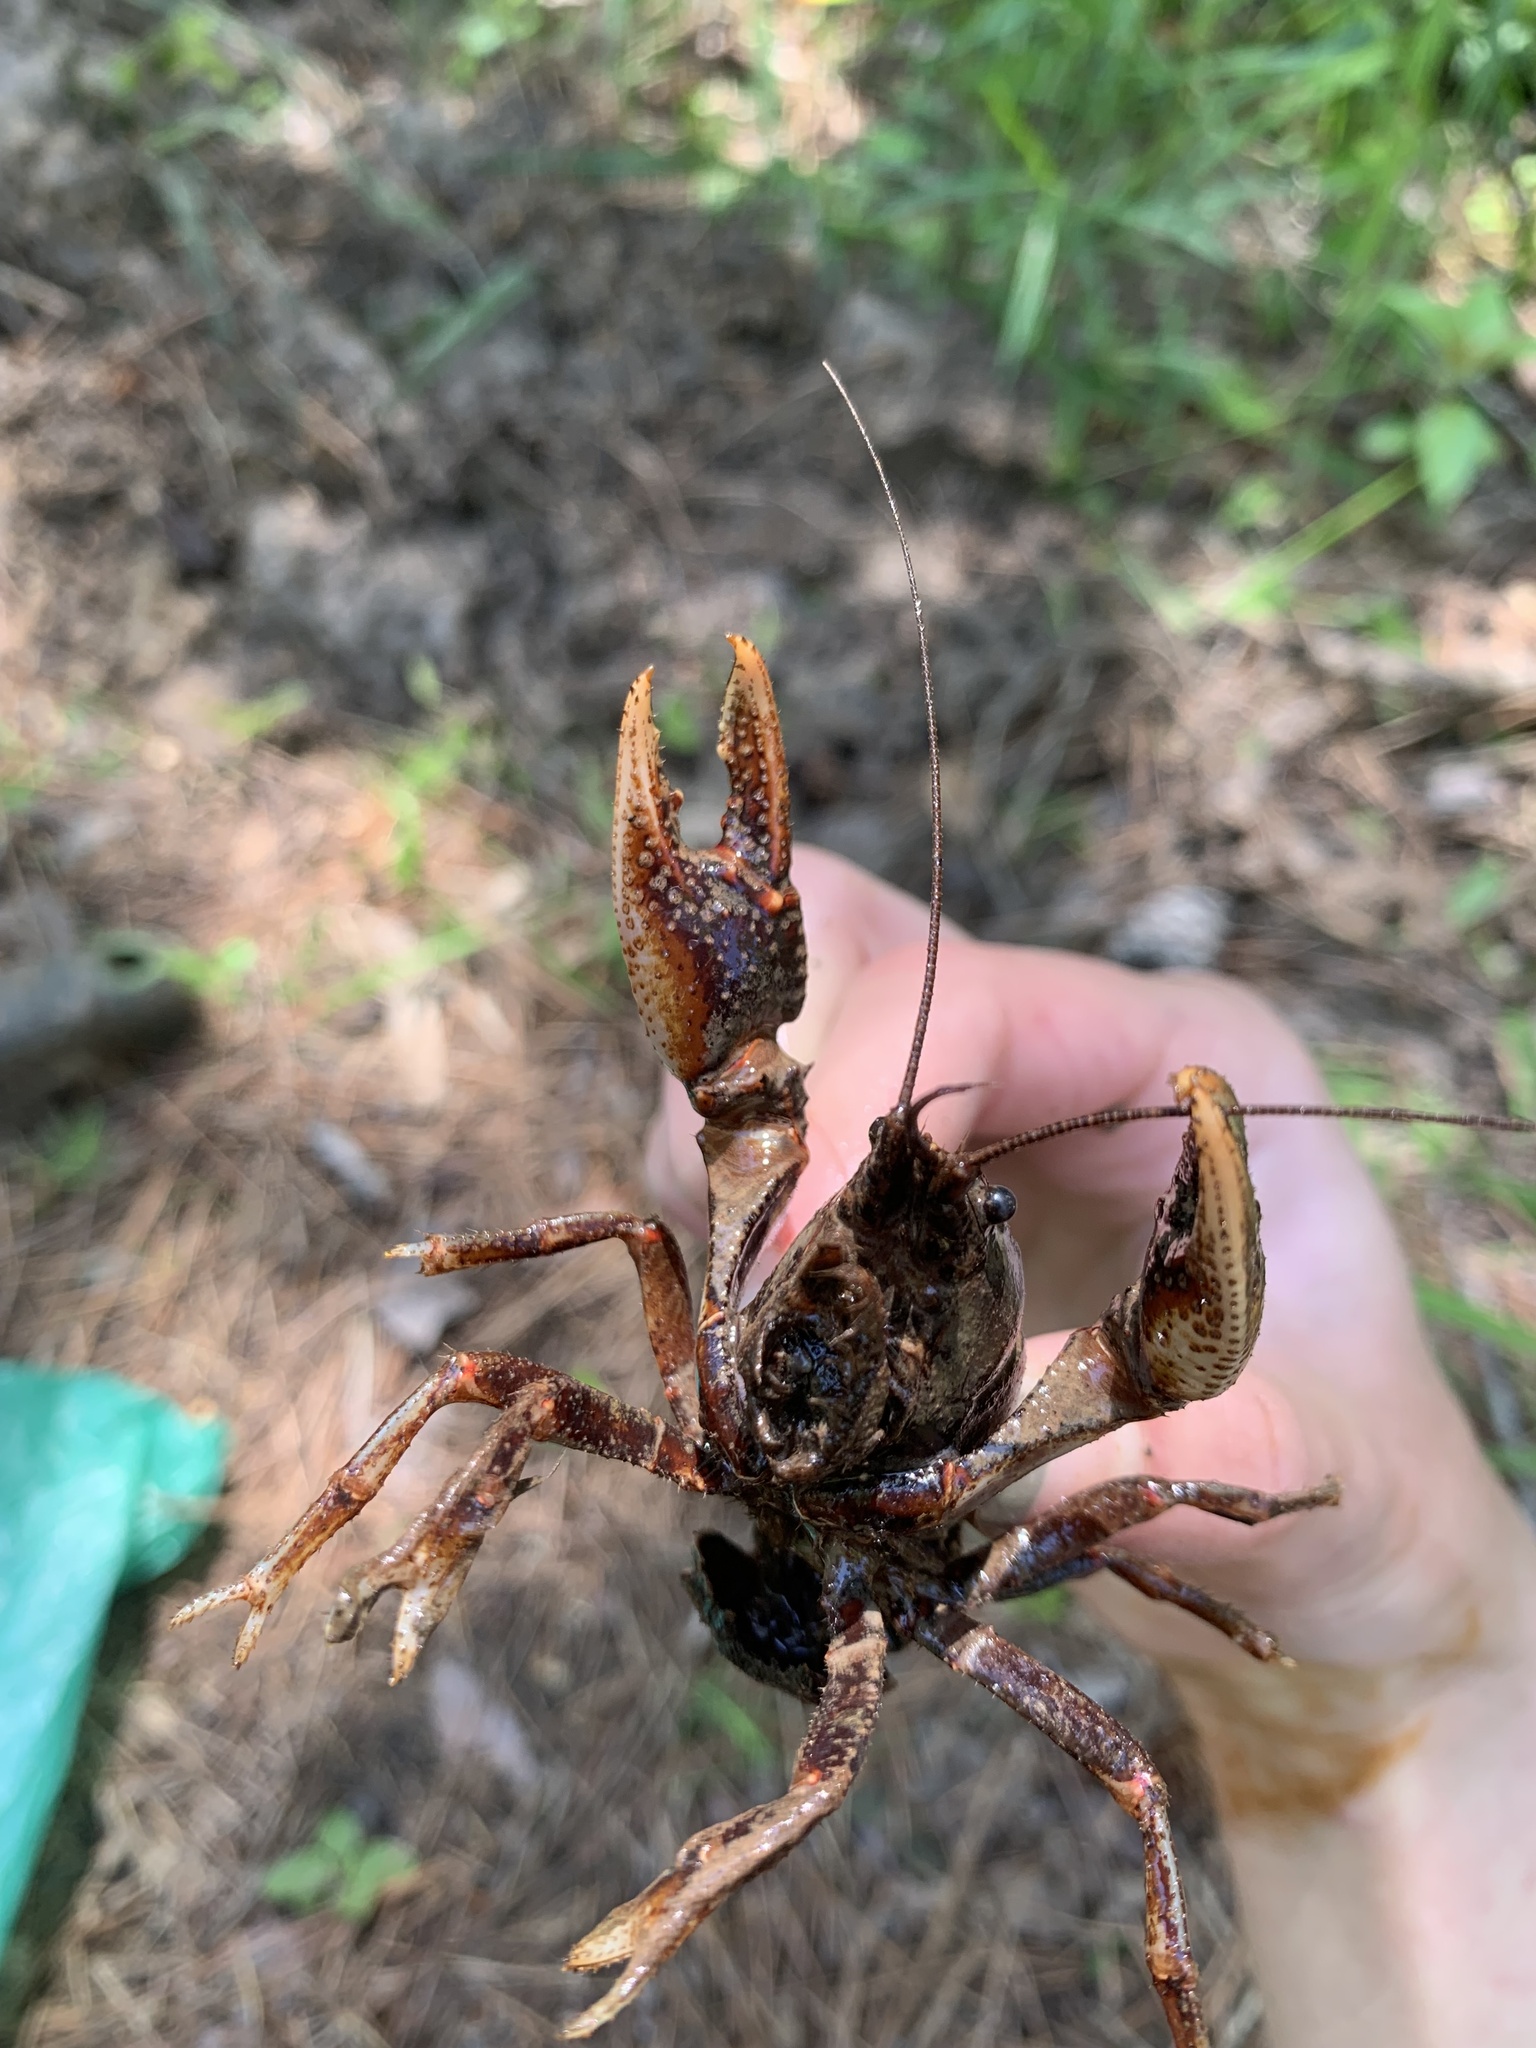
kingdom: Animalia
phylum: Arthropoda
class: Malacostraca
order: Decapoda
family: Cambaridae
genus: Lacunicambarus
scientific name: Lacunicambarus ludovicianus
